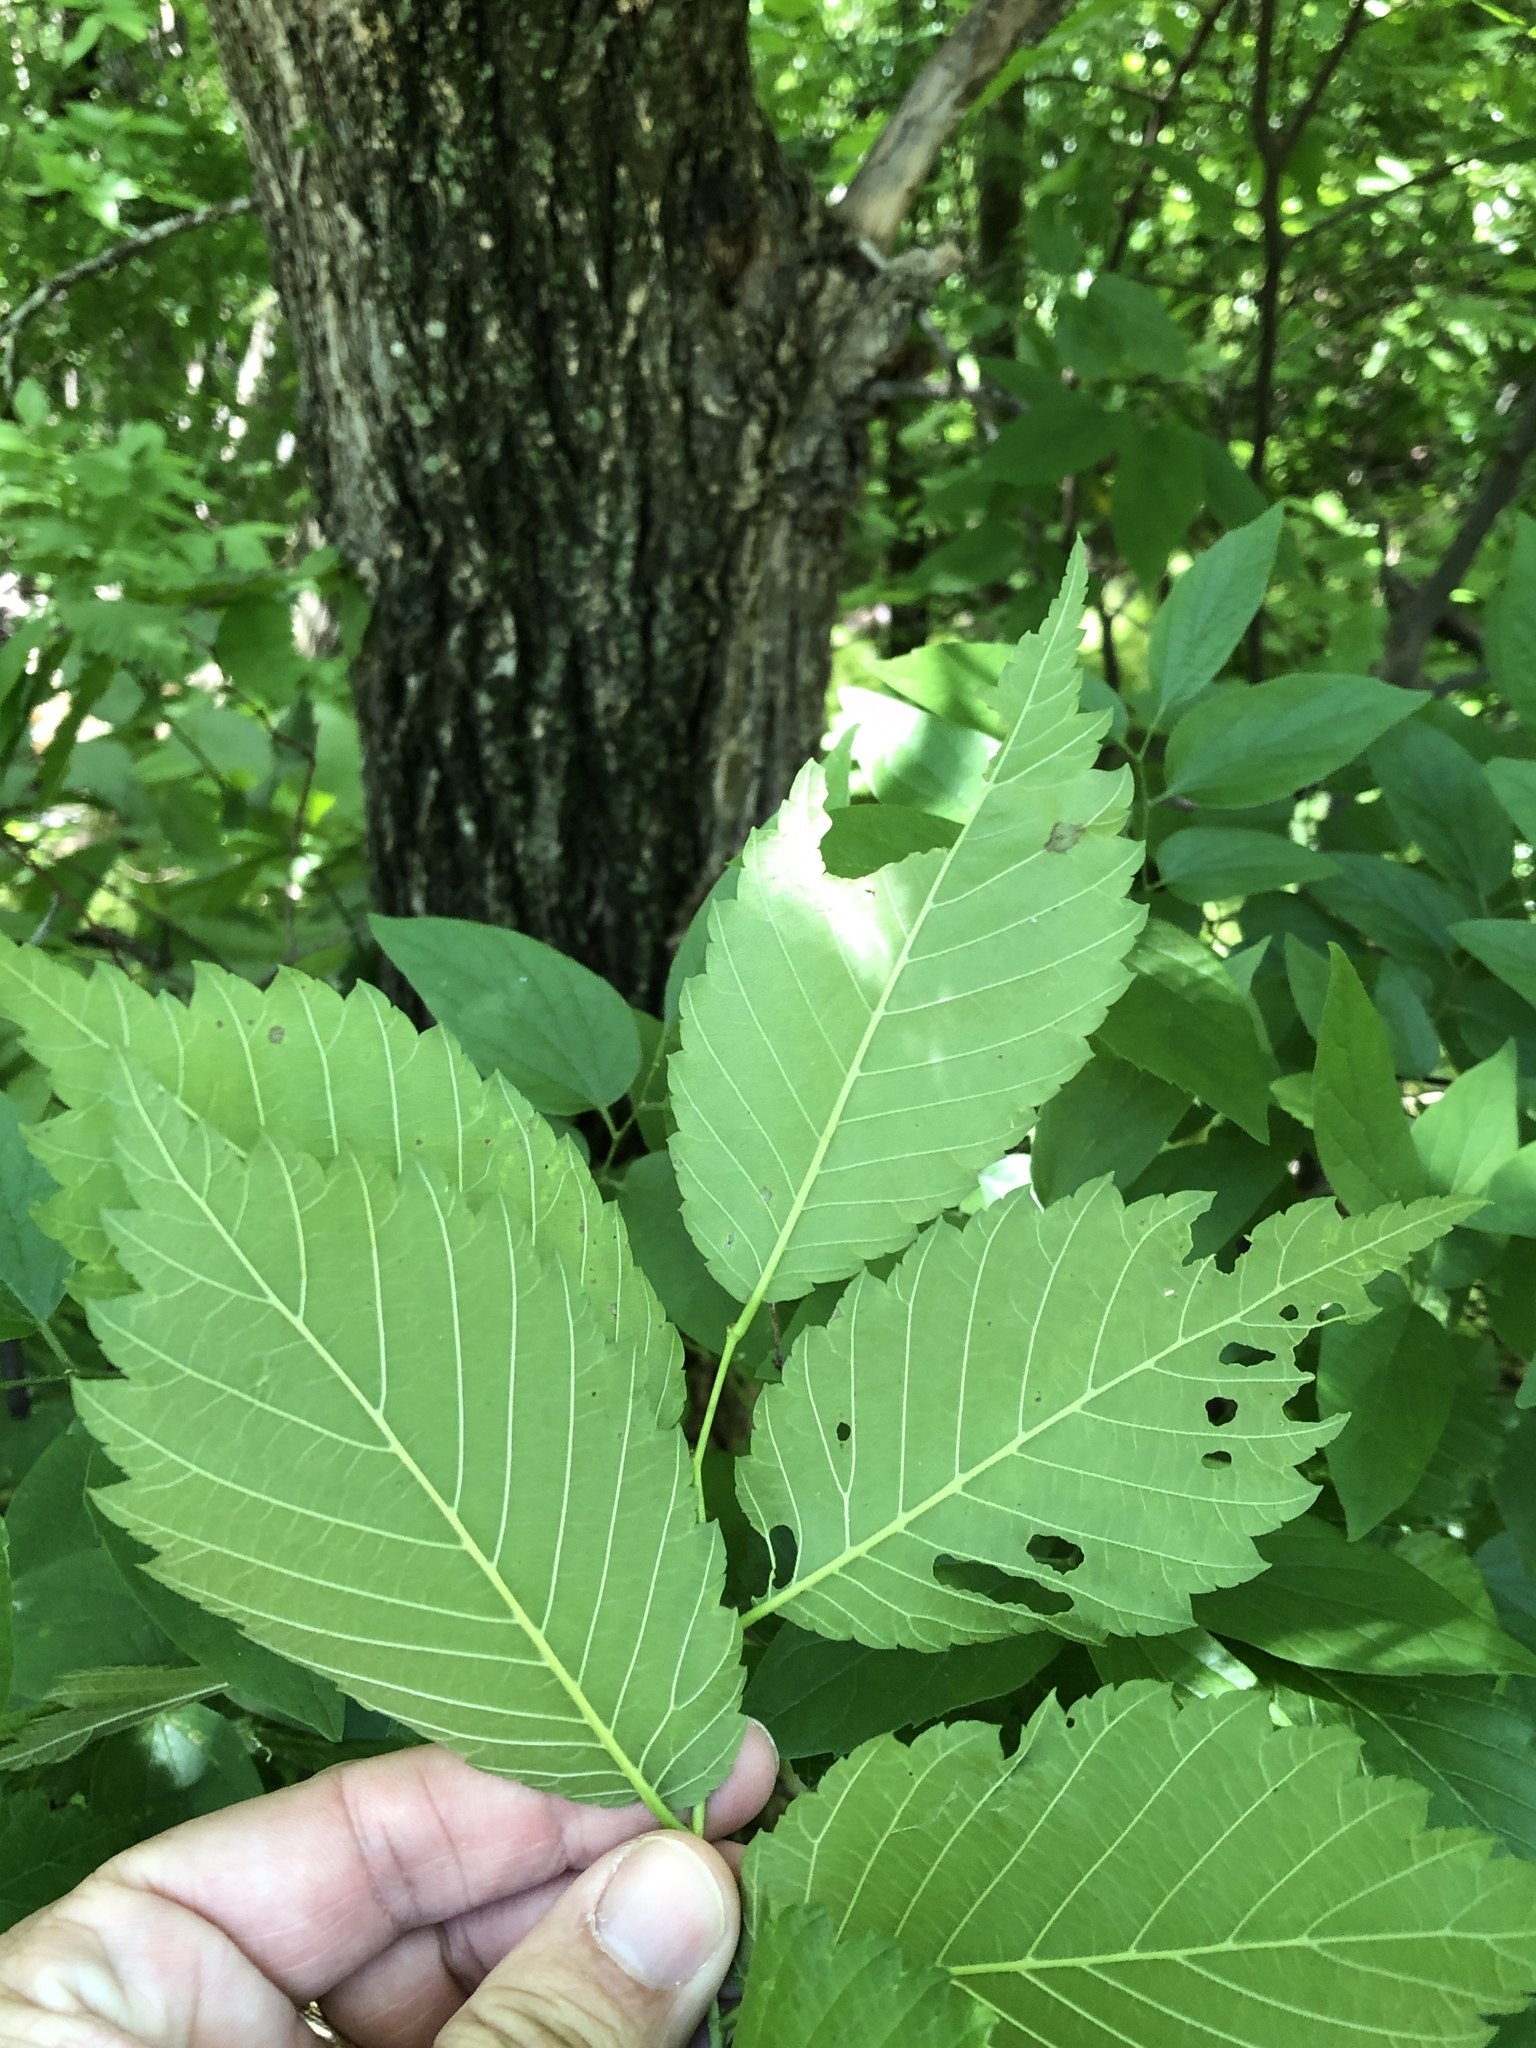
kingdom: Plantae
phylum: Tracheophyta
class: Magnoliopsida
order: Rosales
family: Ulmaceae
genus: Ulmus
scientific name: Ulmus americana
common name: American elm
